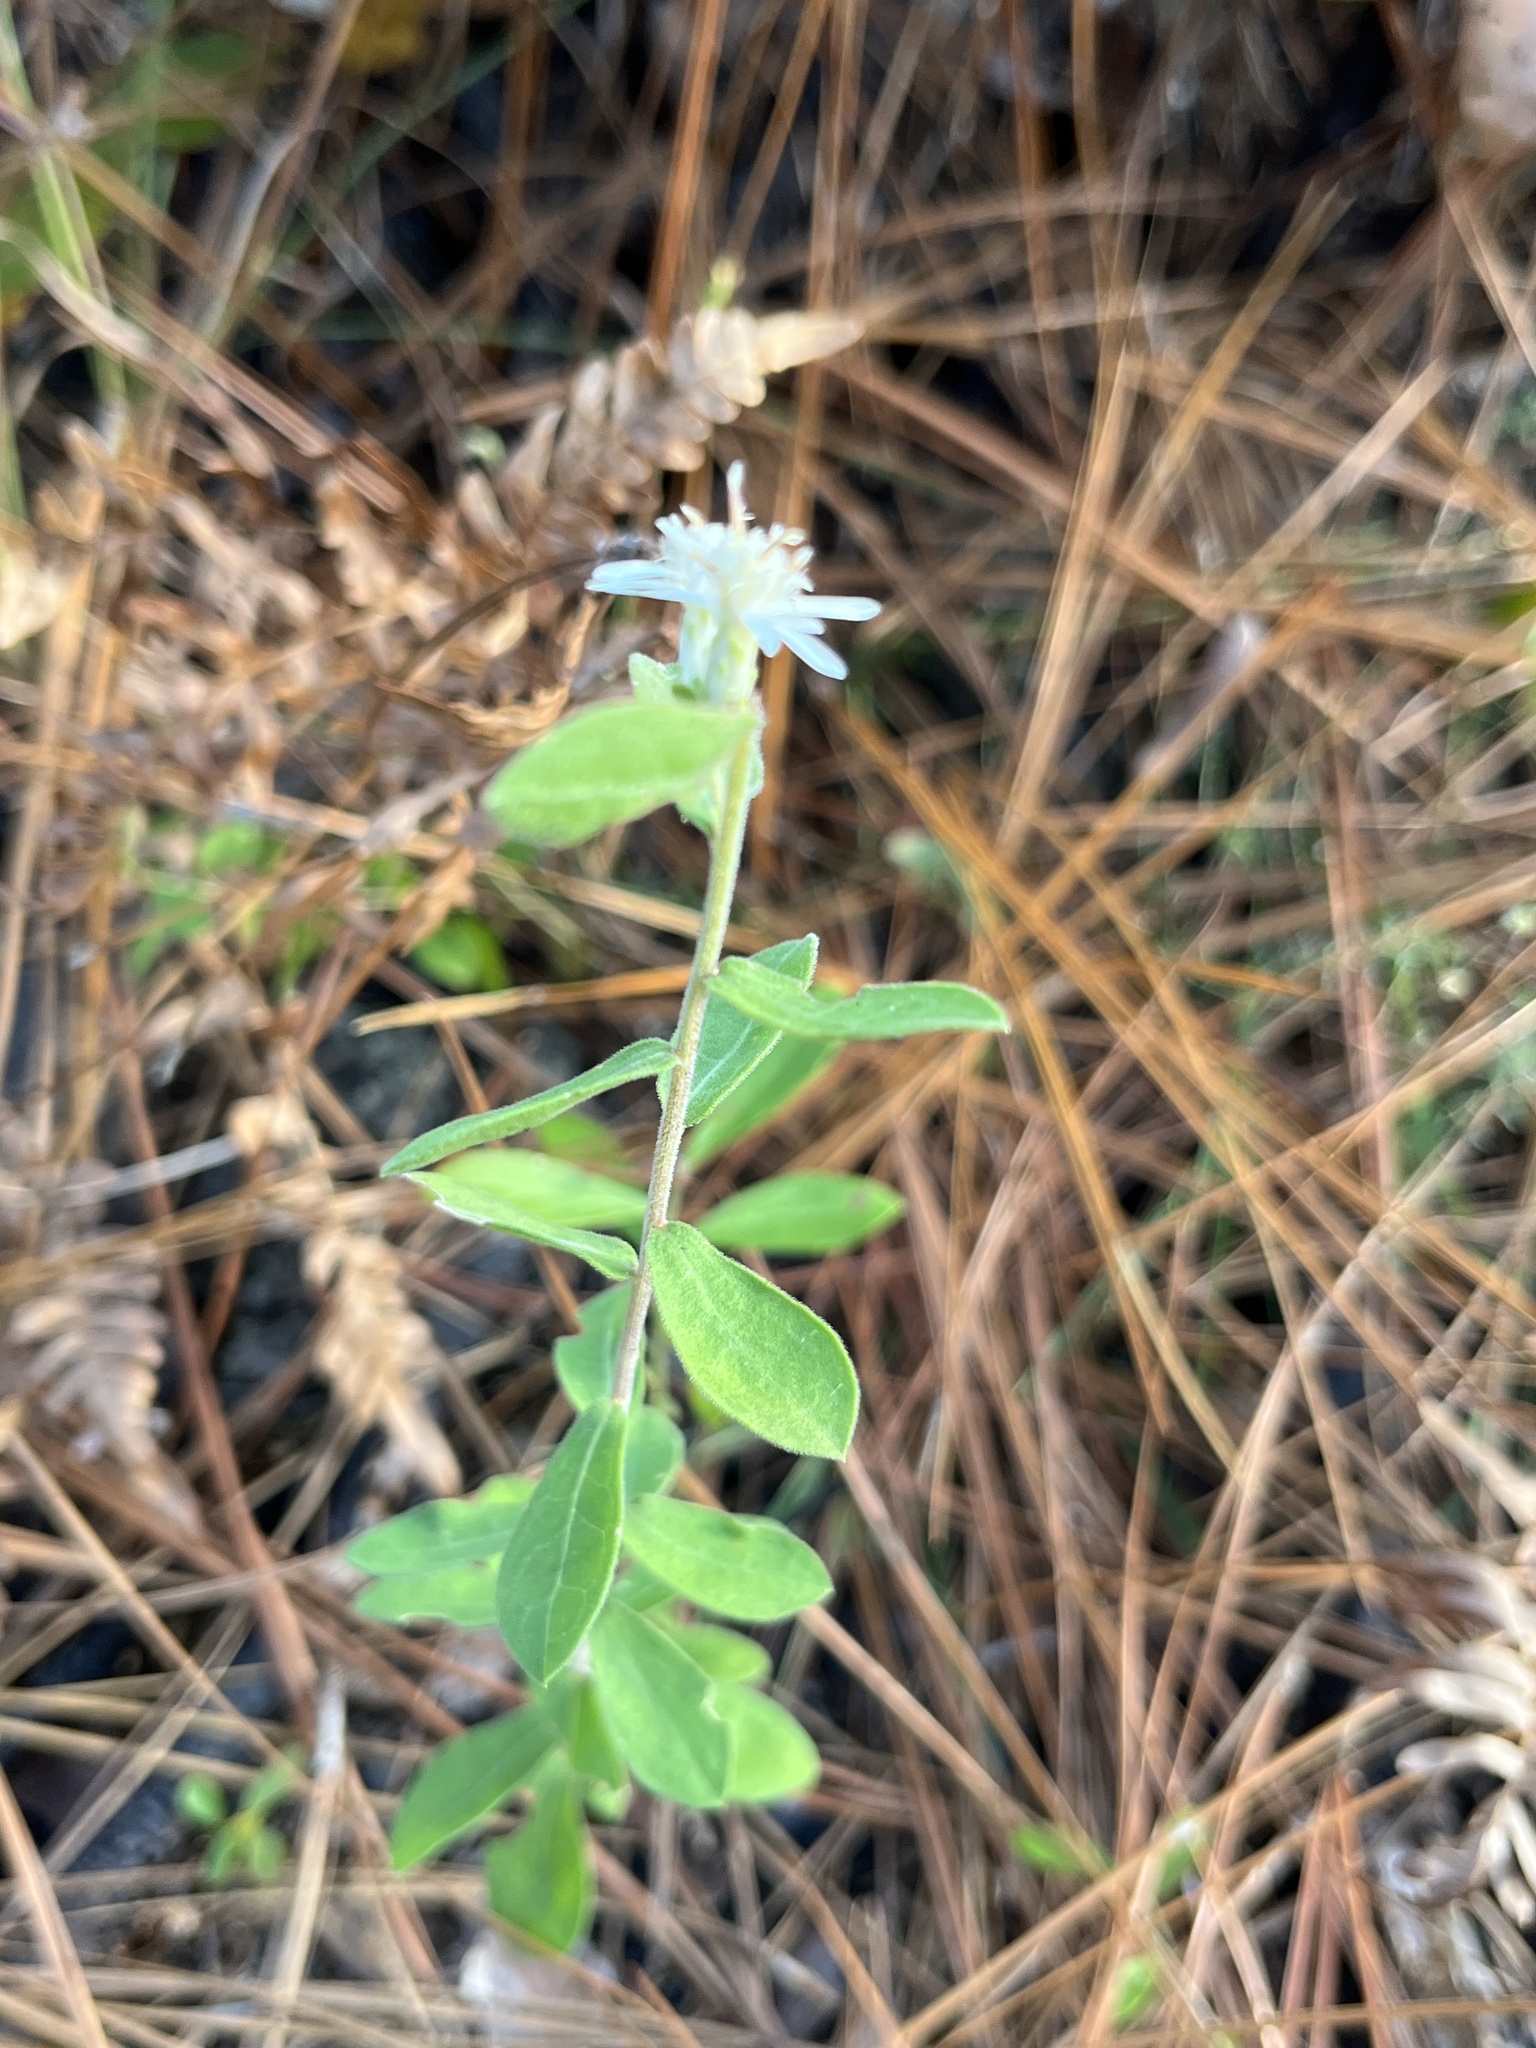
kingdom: Plantae
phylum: Tracheophyta
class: Magnoliopsida
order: Asterales
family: Asteraceae
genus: Sericocarpus
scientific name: Sericocarpus tortifolius
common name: Dixie aster
